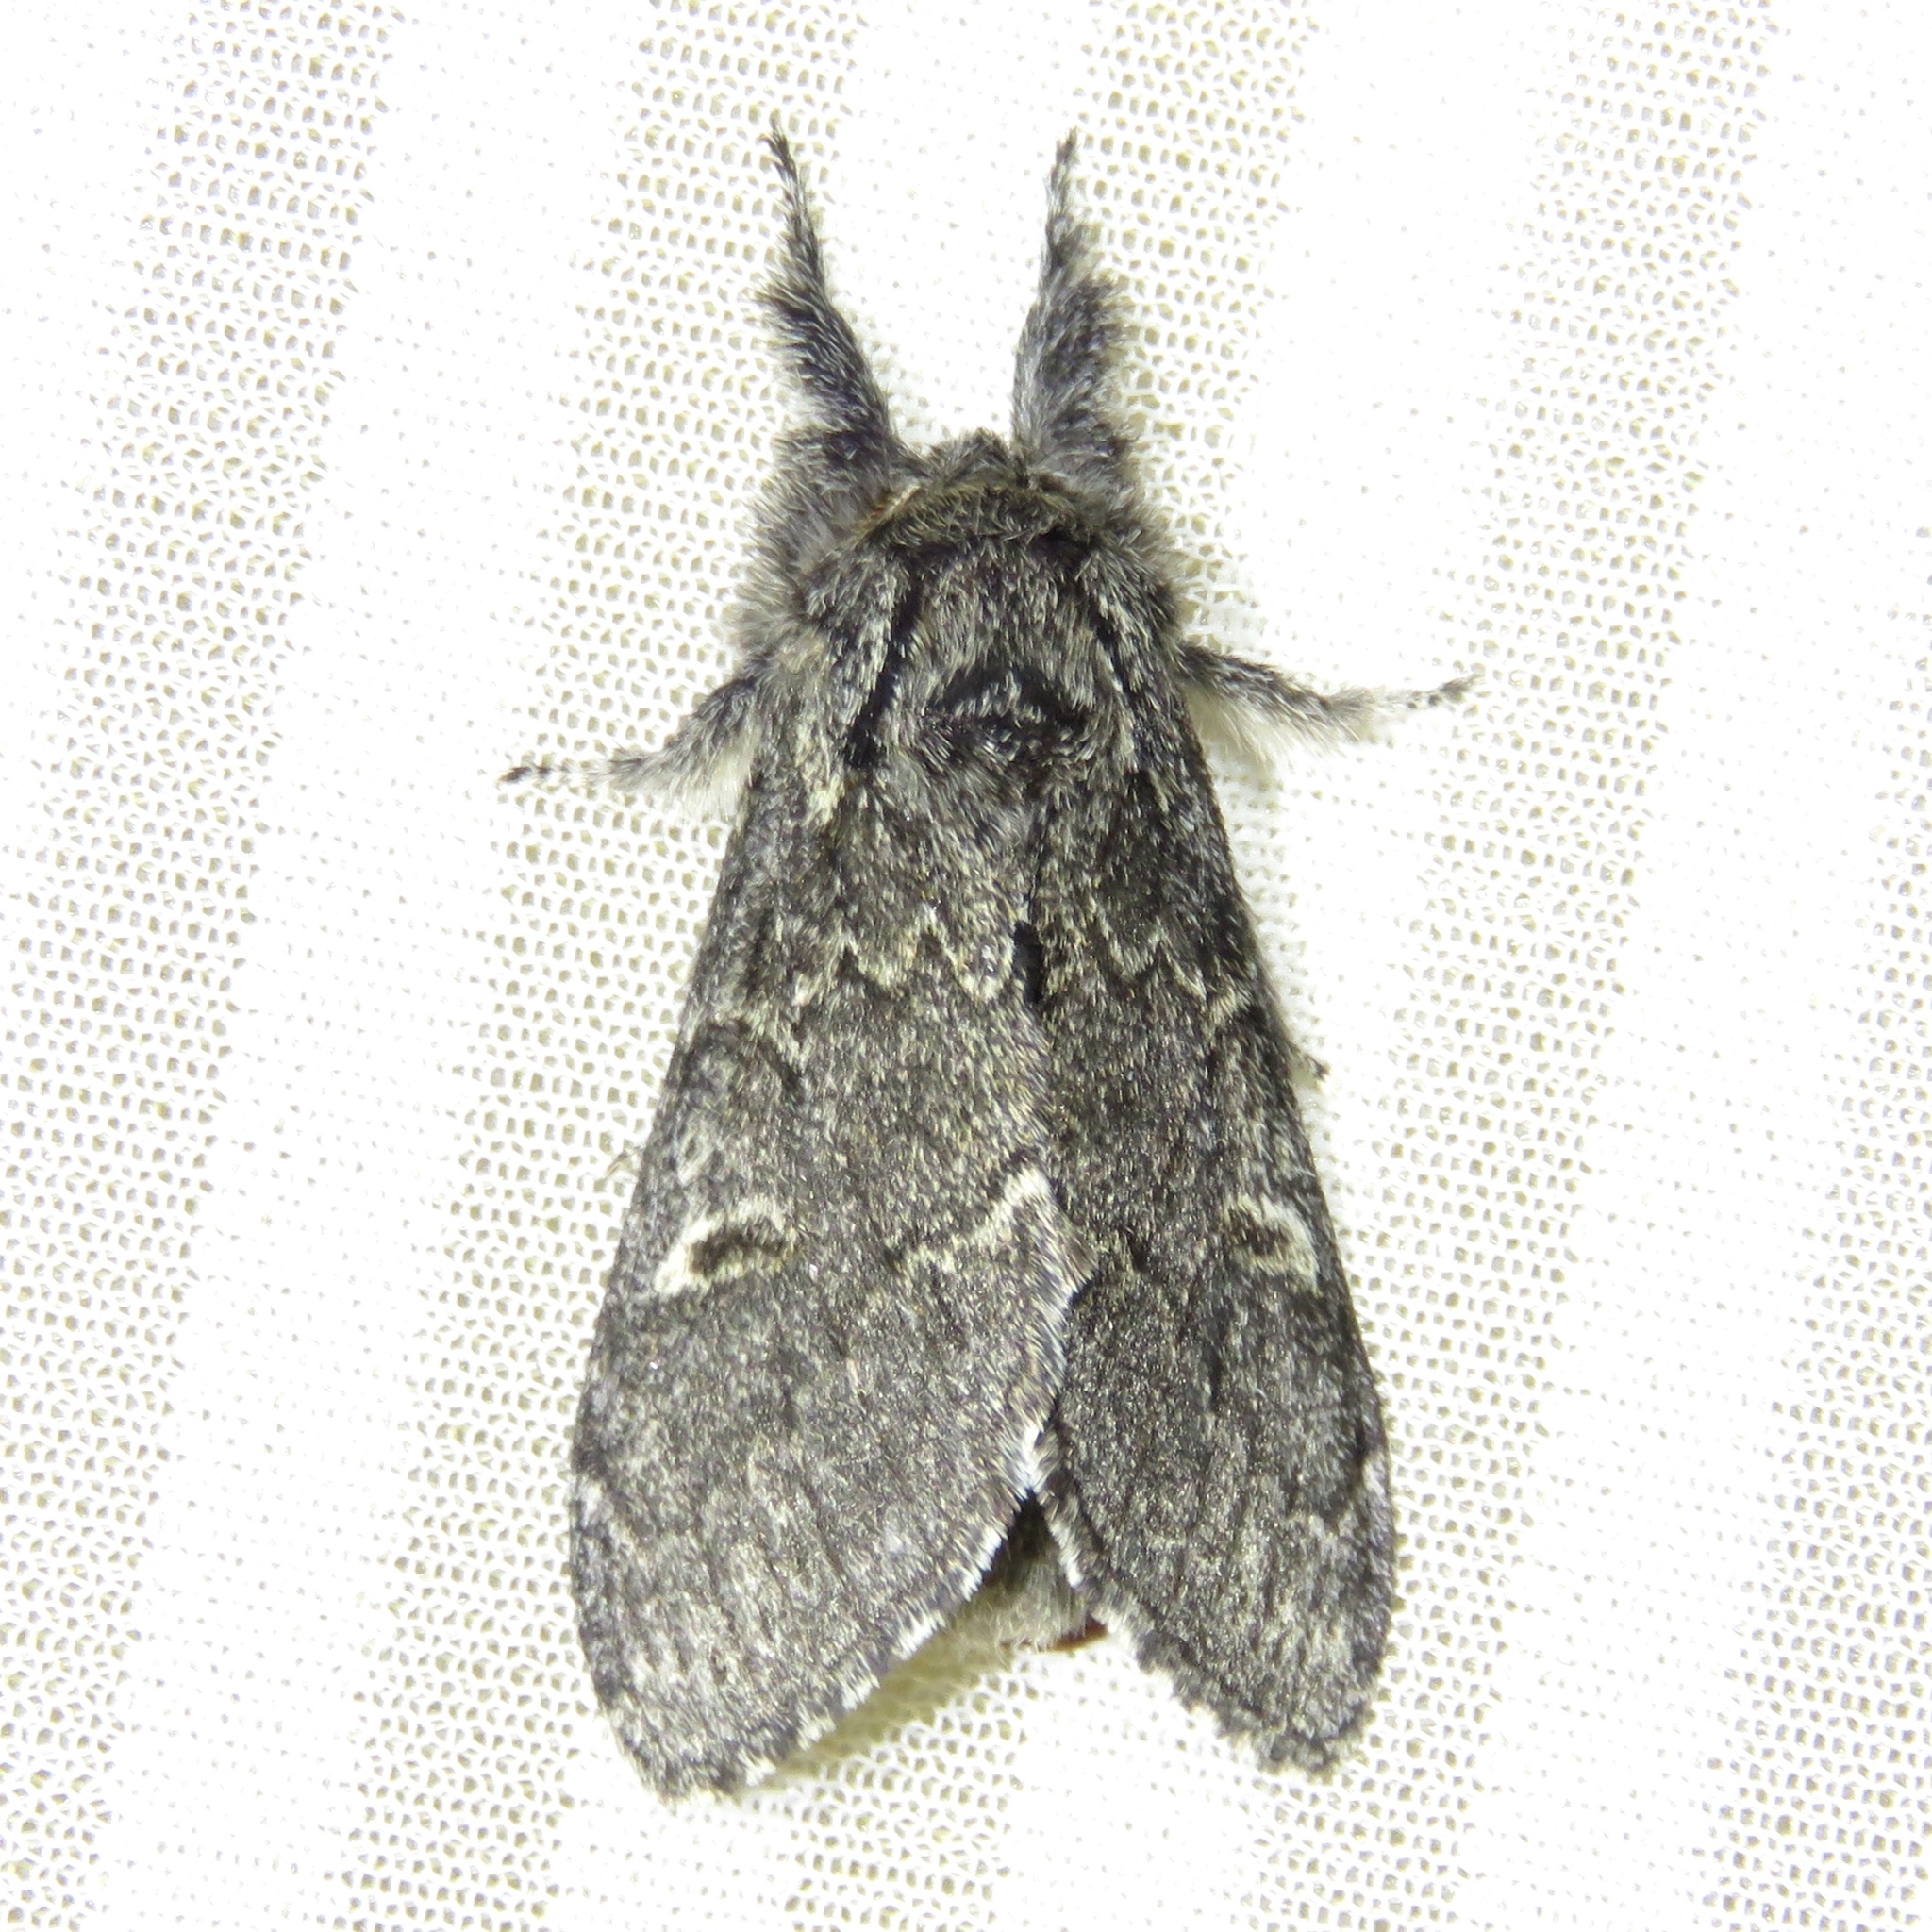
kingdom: Animalia
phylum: Arthropoda
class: Insecta
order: Lepidoptera
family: Notodontidae
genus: Notodonta
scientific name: Notodonta torva
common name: Large dark prominent
